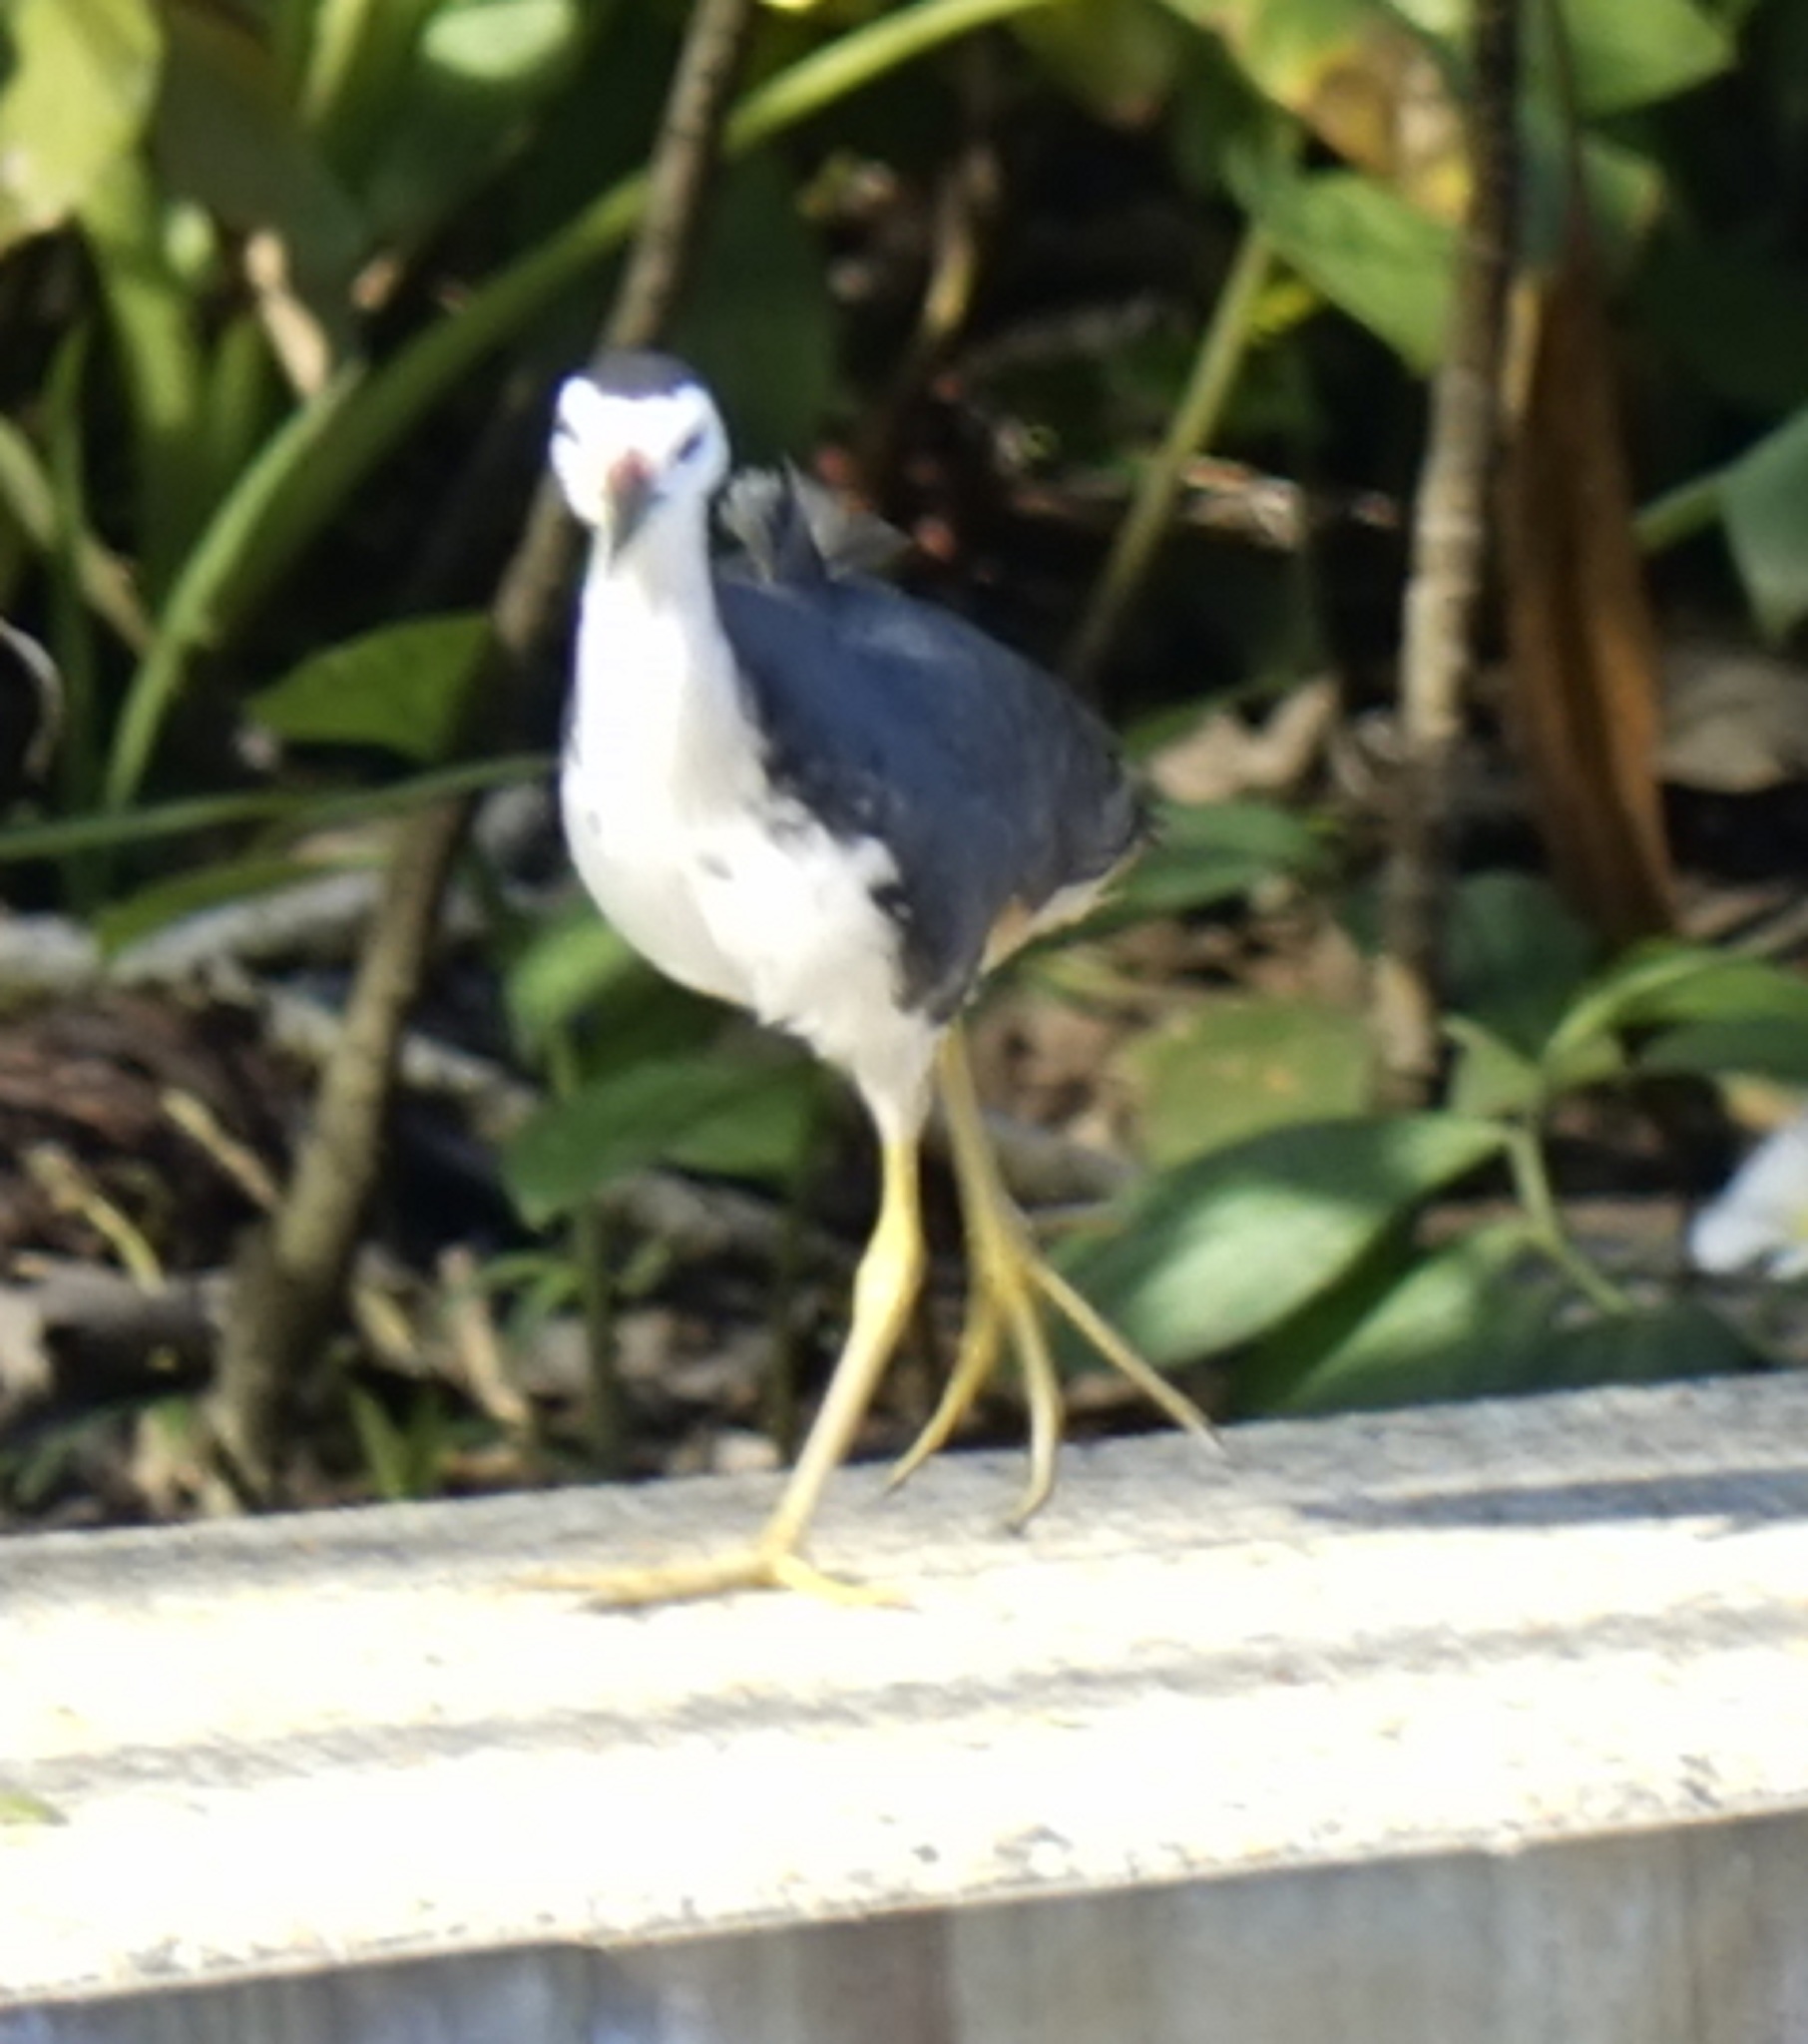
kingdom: Animalia
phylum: Chordata
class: Aves
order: Gruiformes
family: Rallidae
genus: Amaurornis
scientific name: Amaurornis phoenicurus
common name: White-breasted waterhen
